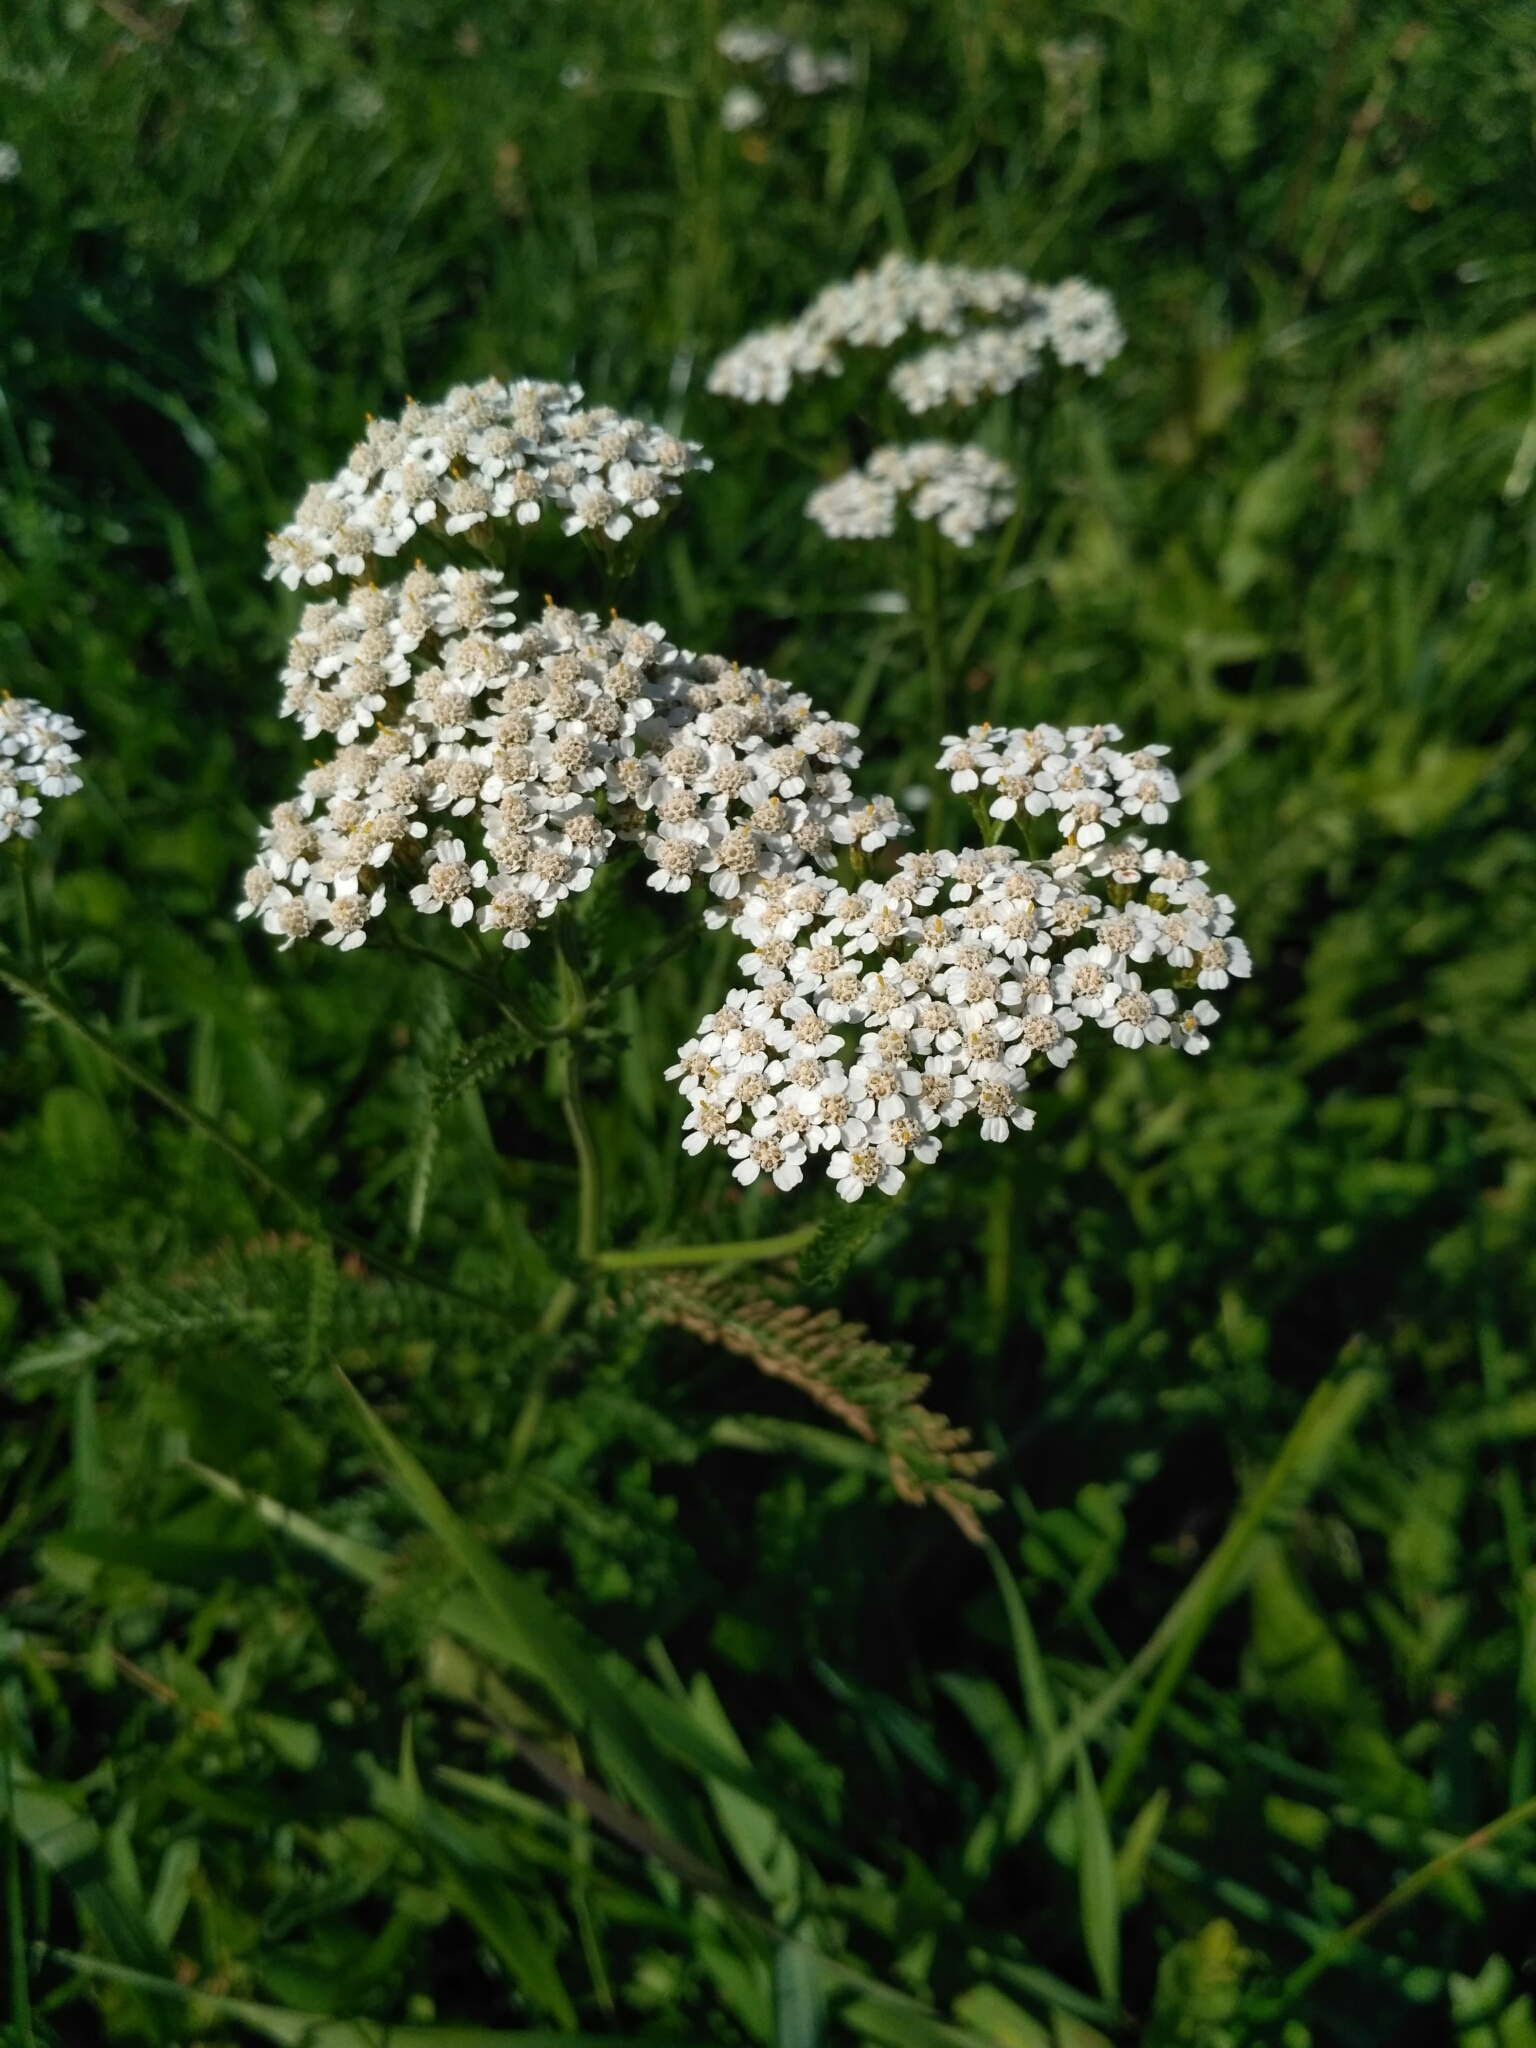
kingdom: Plantae
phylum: Tracheophyta
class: Magnoliopsida
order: Asterales
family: Asteraceae
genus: Achillea
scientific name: Achillea millefolium
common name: Yarrow
